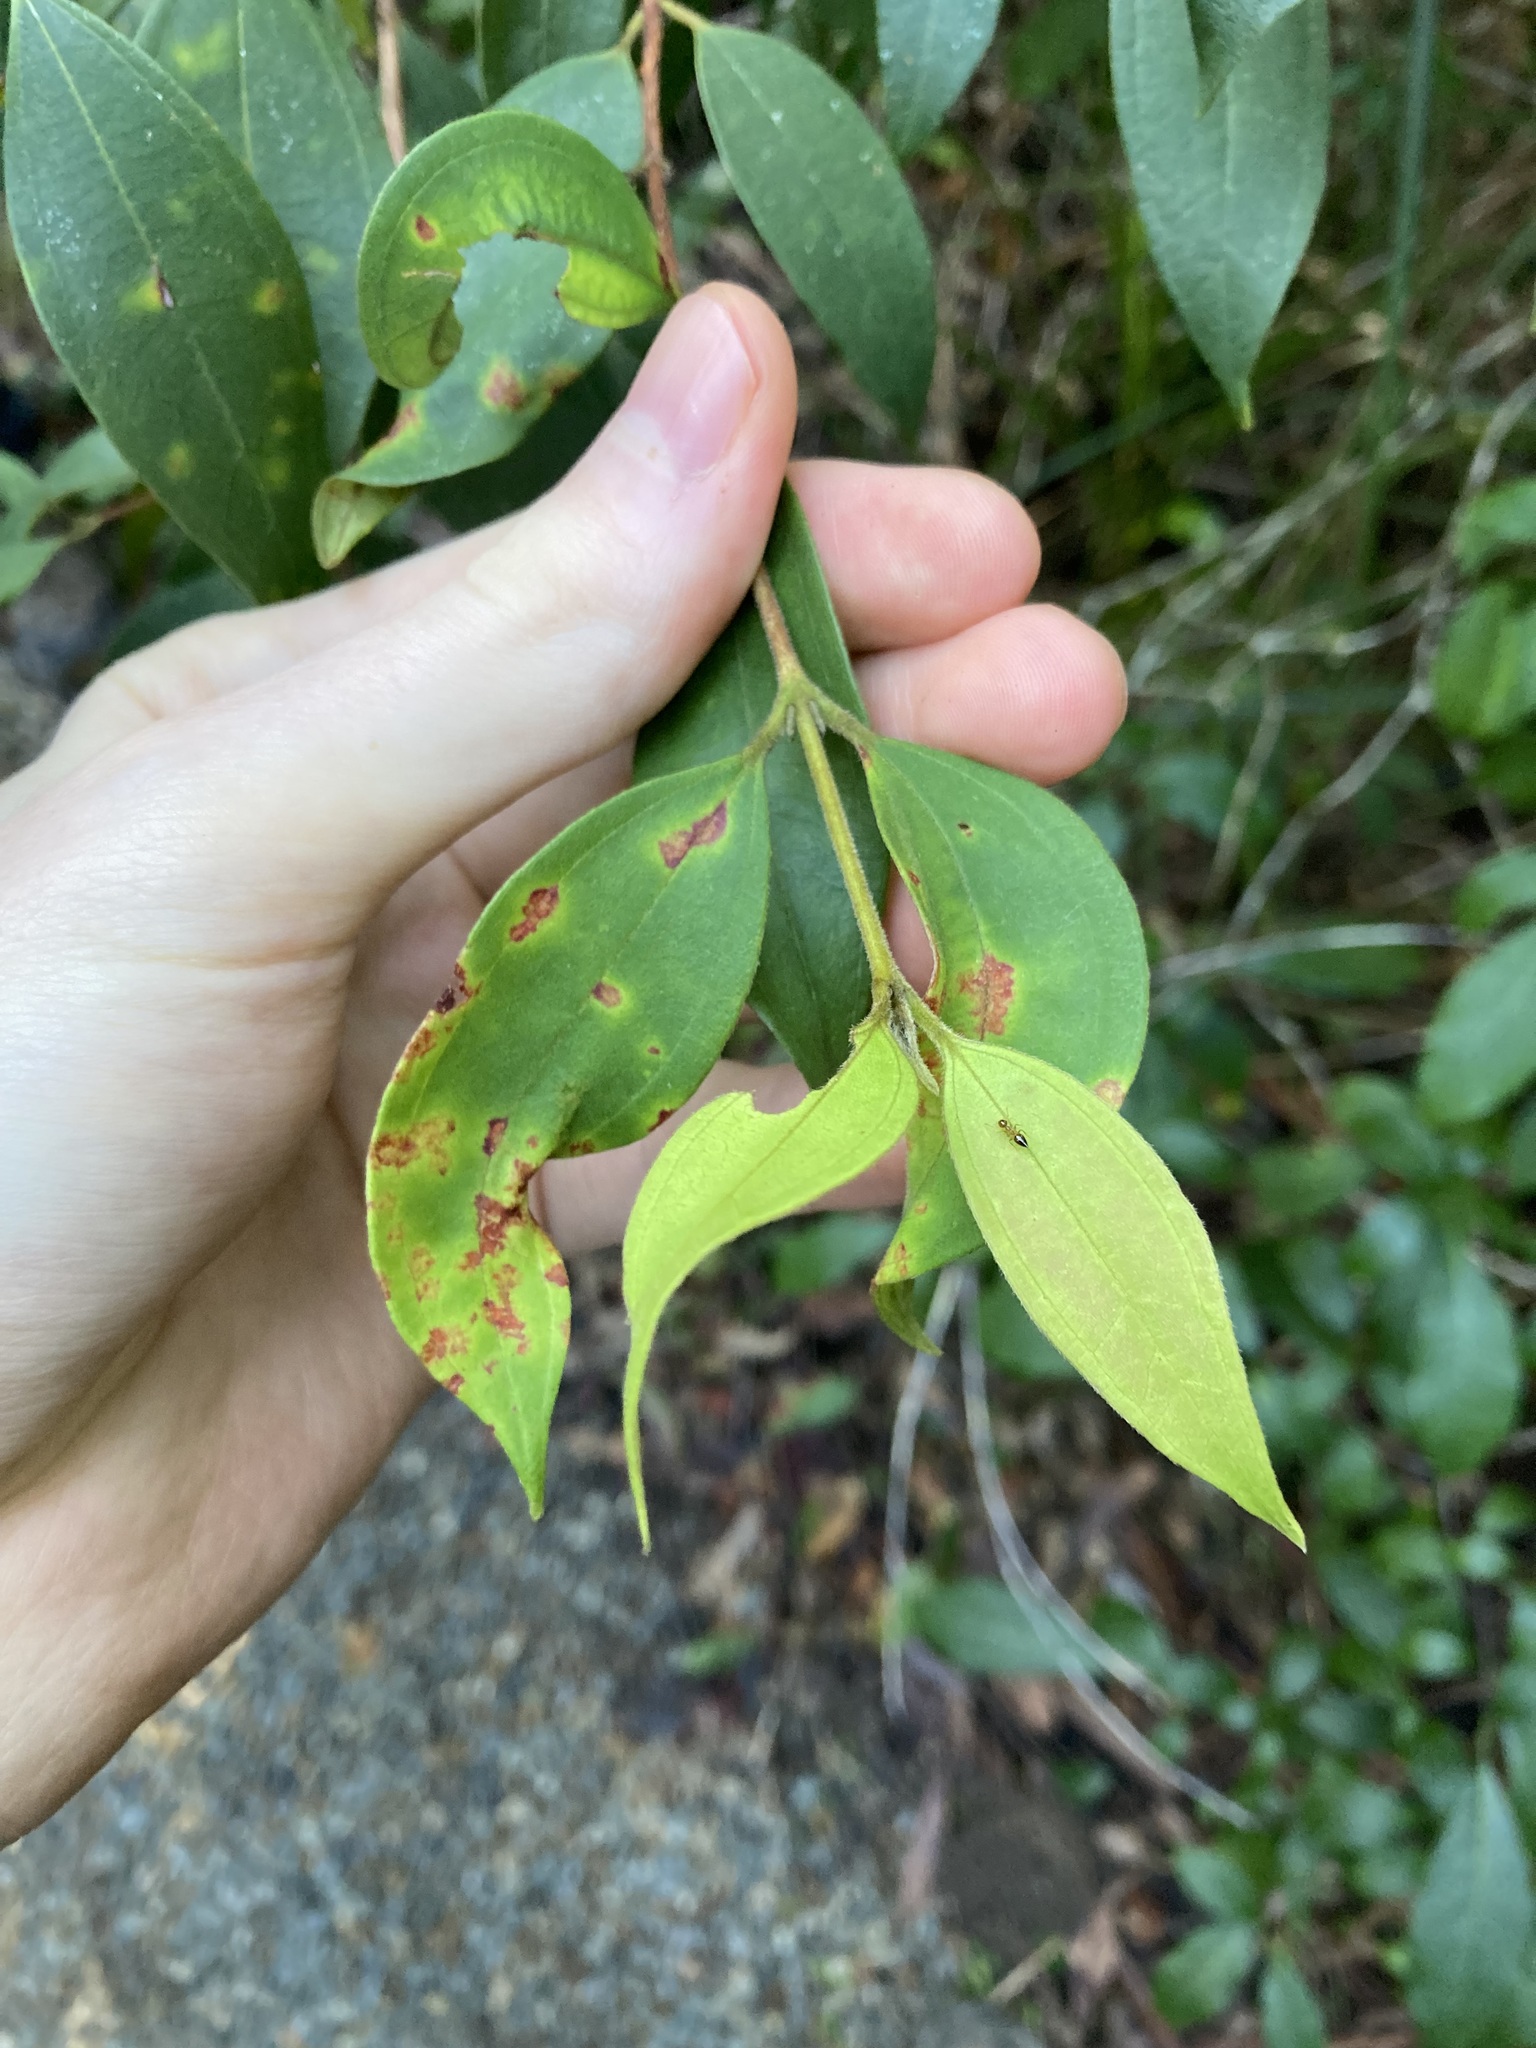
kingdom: Fungi
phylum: Basidiomycota
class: Pucciniomycetes
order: Pucciniales
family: Sphaerophragmiaceae
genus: Austropuccinia
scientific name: Austropuccinia psidii
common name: Myrtle rust
